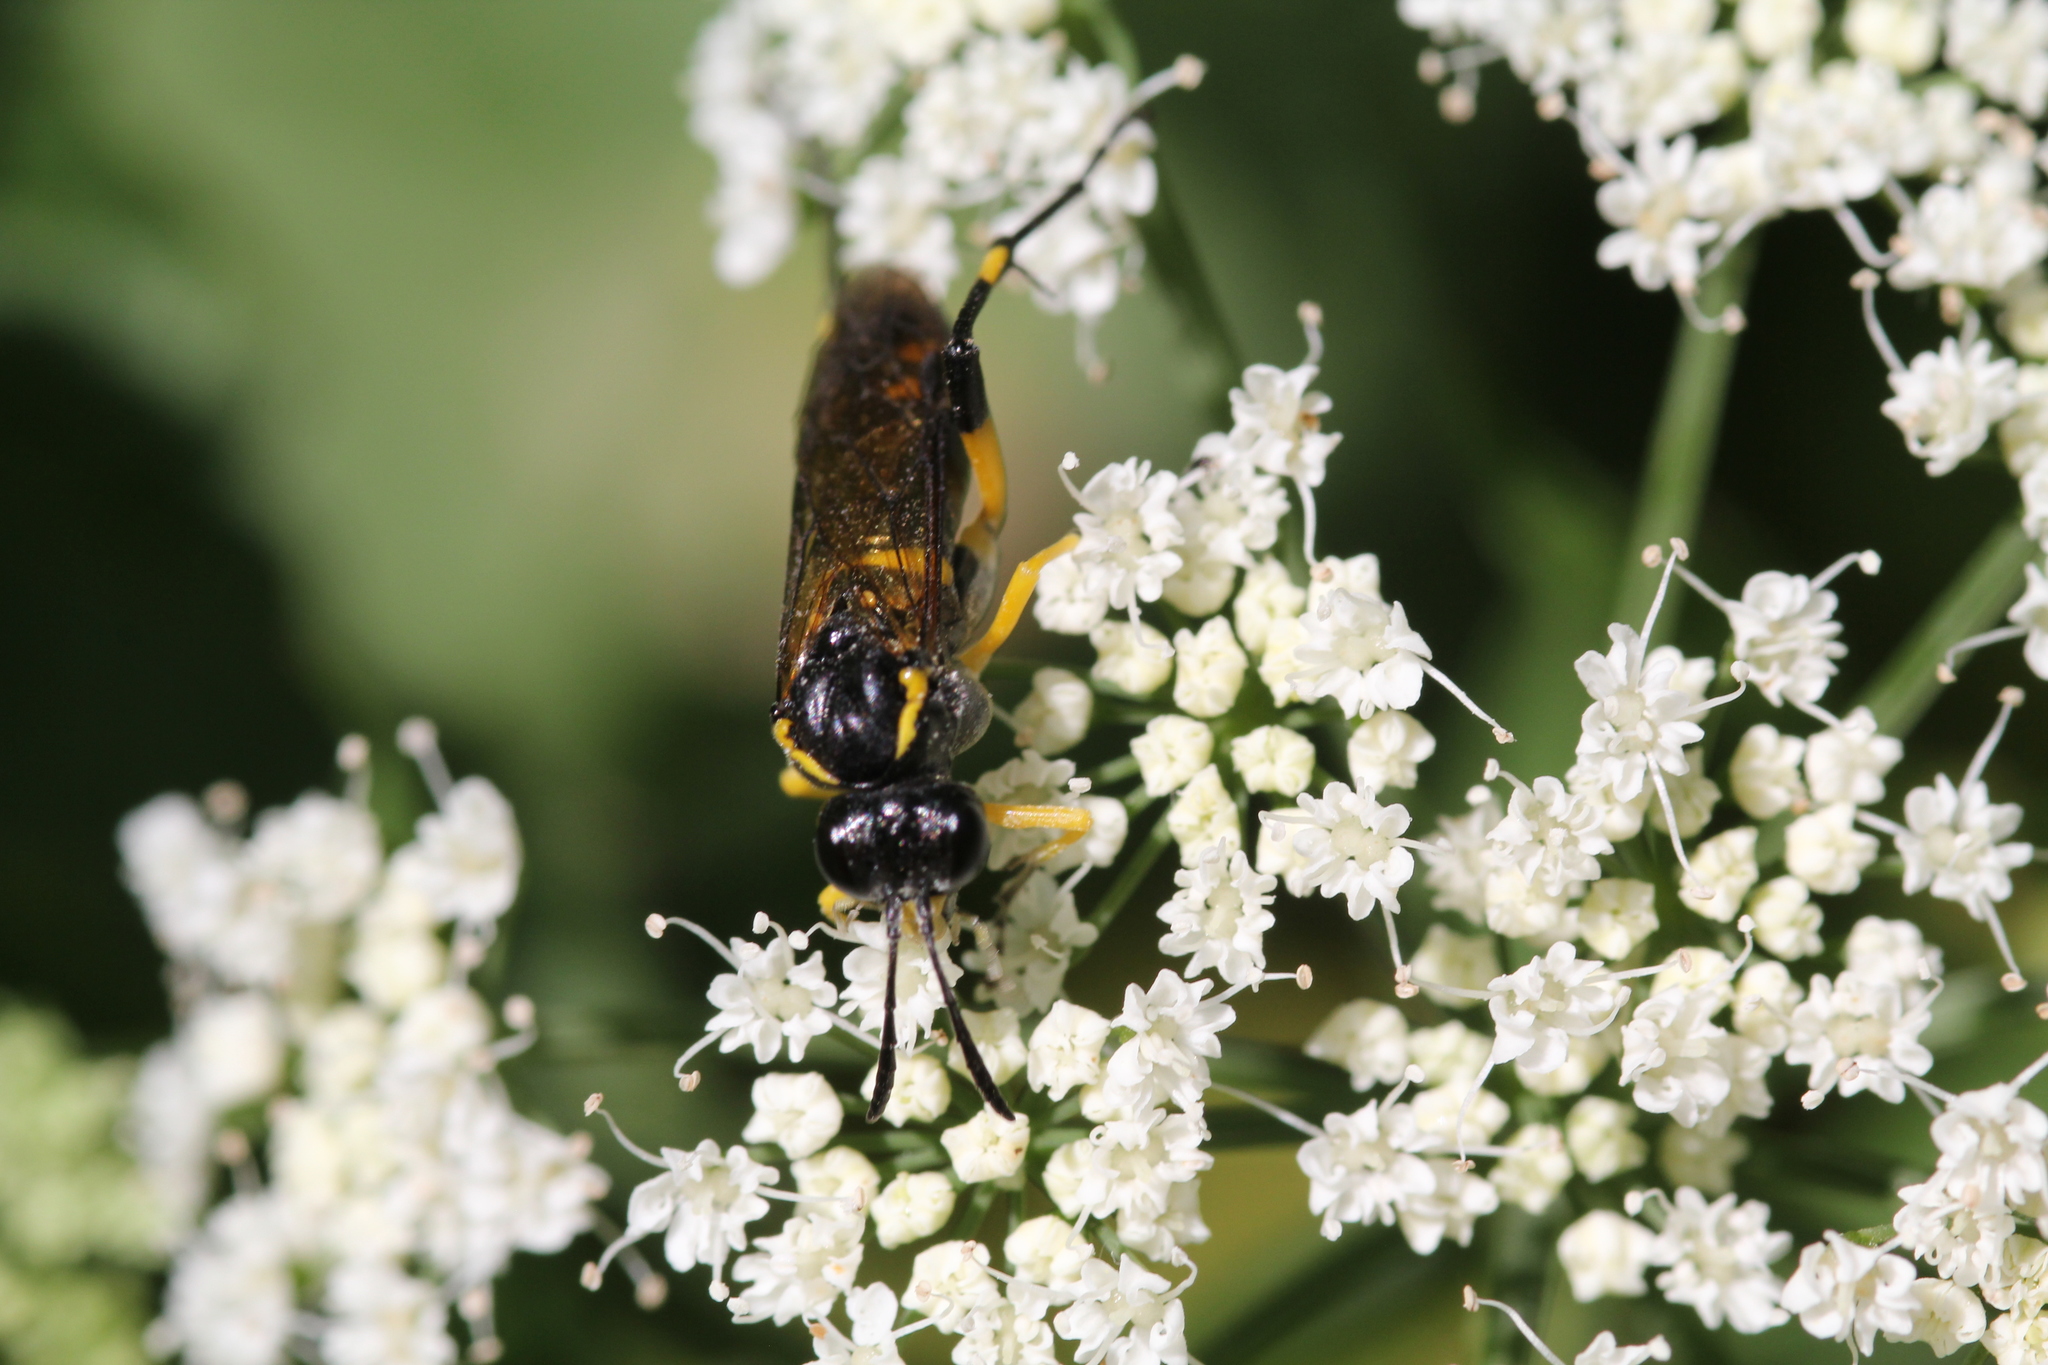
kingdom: Animalia
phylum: Arthropoda
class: Insecta
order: Hymenoptera
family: Tenthredinidae
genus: Macrophya
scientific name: Macrophya montana
